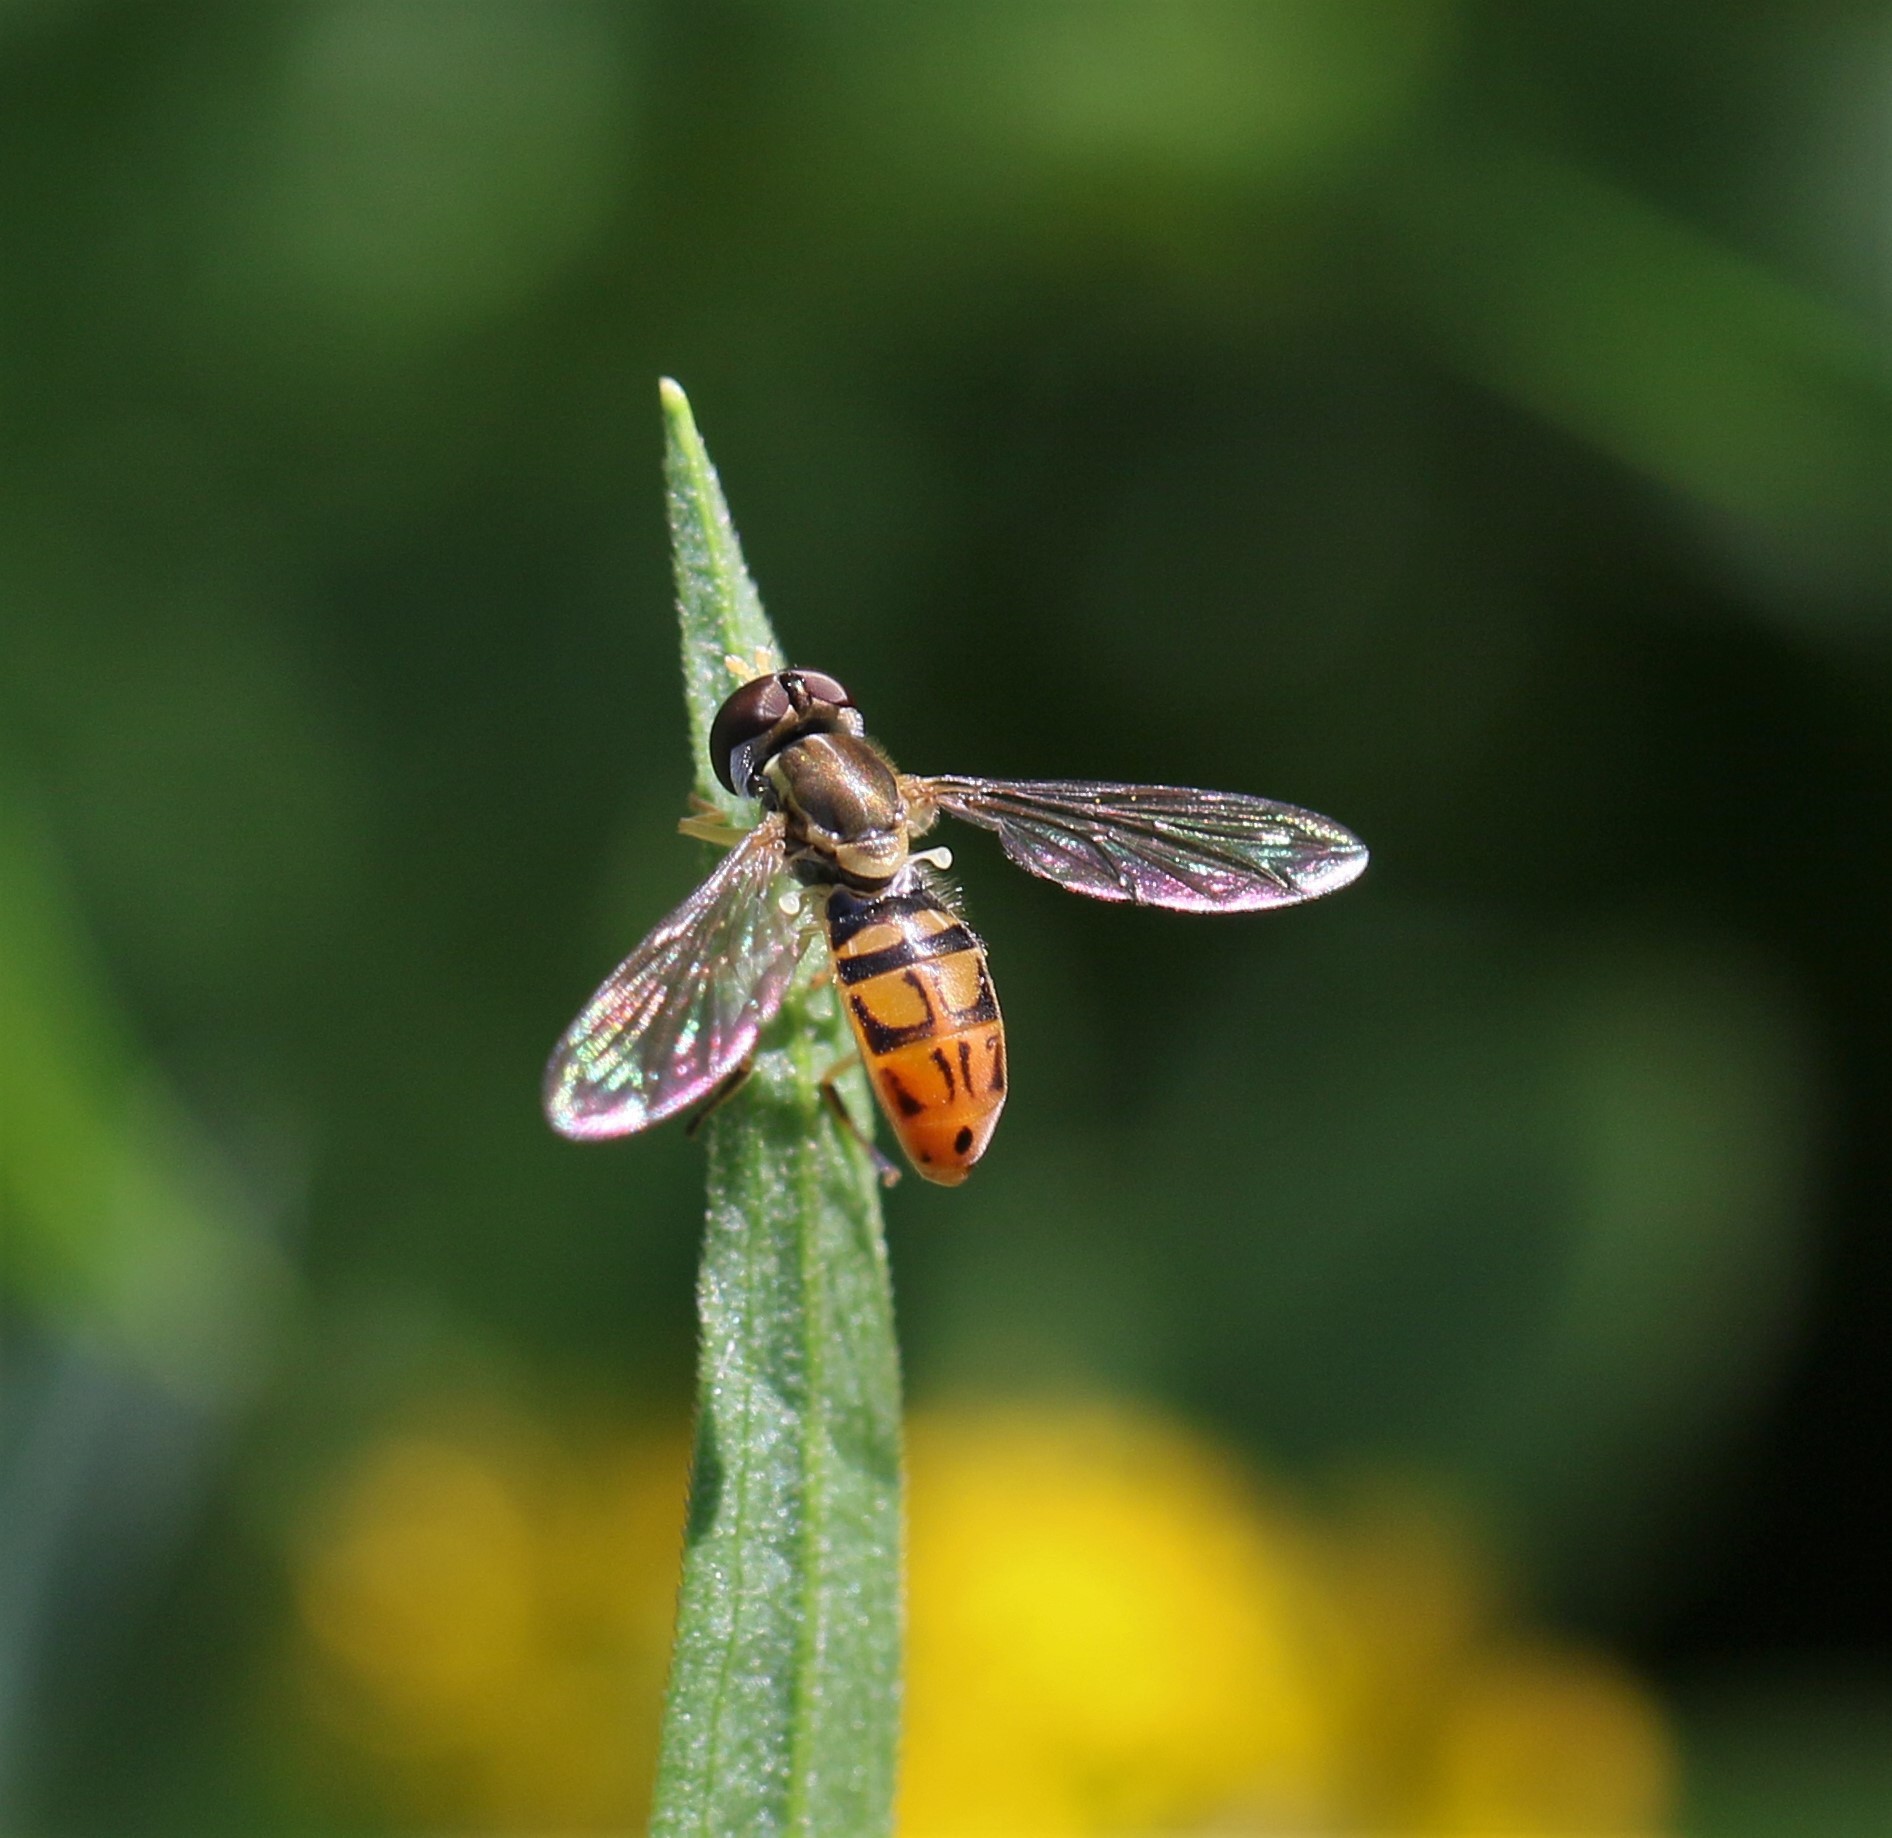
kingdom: Animalia
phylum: Arthropoda
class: Insecta
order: Diptera
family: Syrphidae
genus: Toxomerus
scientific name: Toxomerus marginatus
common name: Syrphid fly
